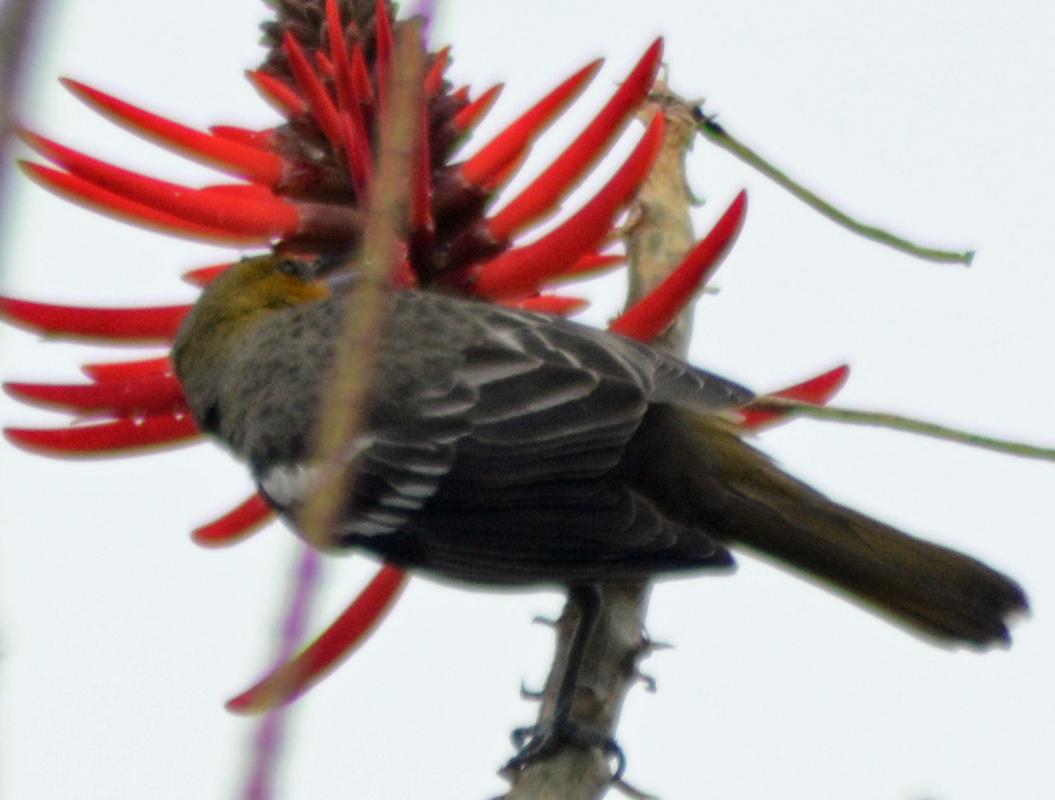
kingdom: Animalia
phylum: Chordata
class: Aves
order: Passeriformes
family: Icteridae
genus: Icterus
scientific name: Icterus abeillei
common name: Black-backed oriole
